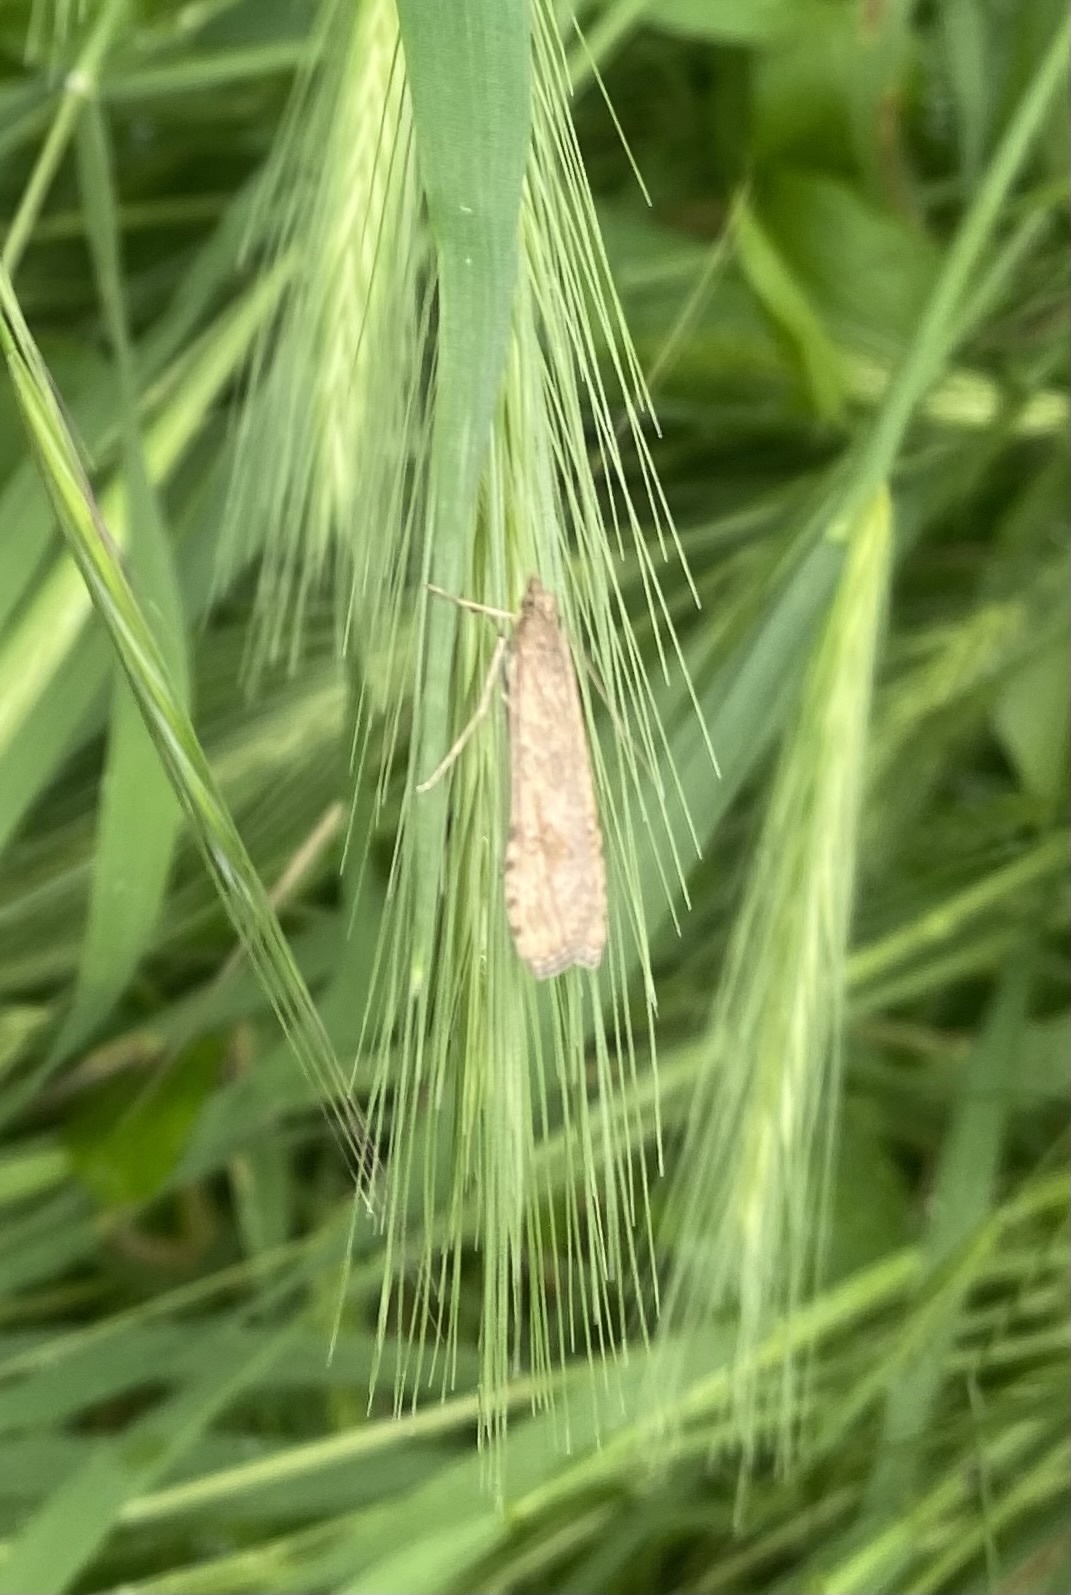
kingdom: Animalia
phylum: Arthropoda
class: Insecta
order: Lepidoptera
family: Crambidae
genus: Nomophila
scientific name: Nomophila noctuella
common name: Rush veneer
